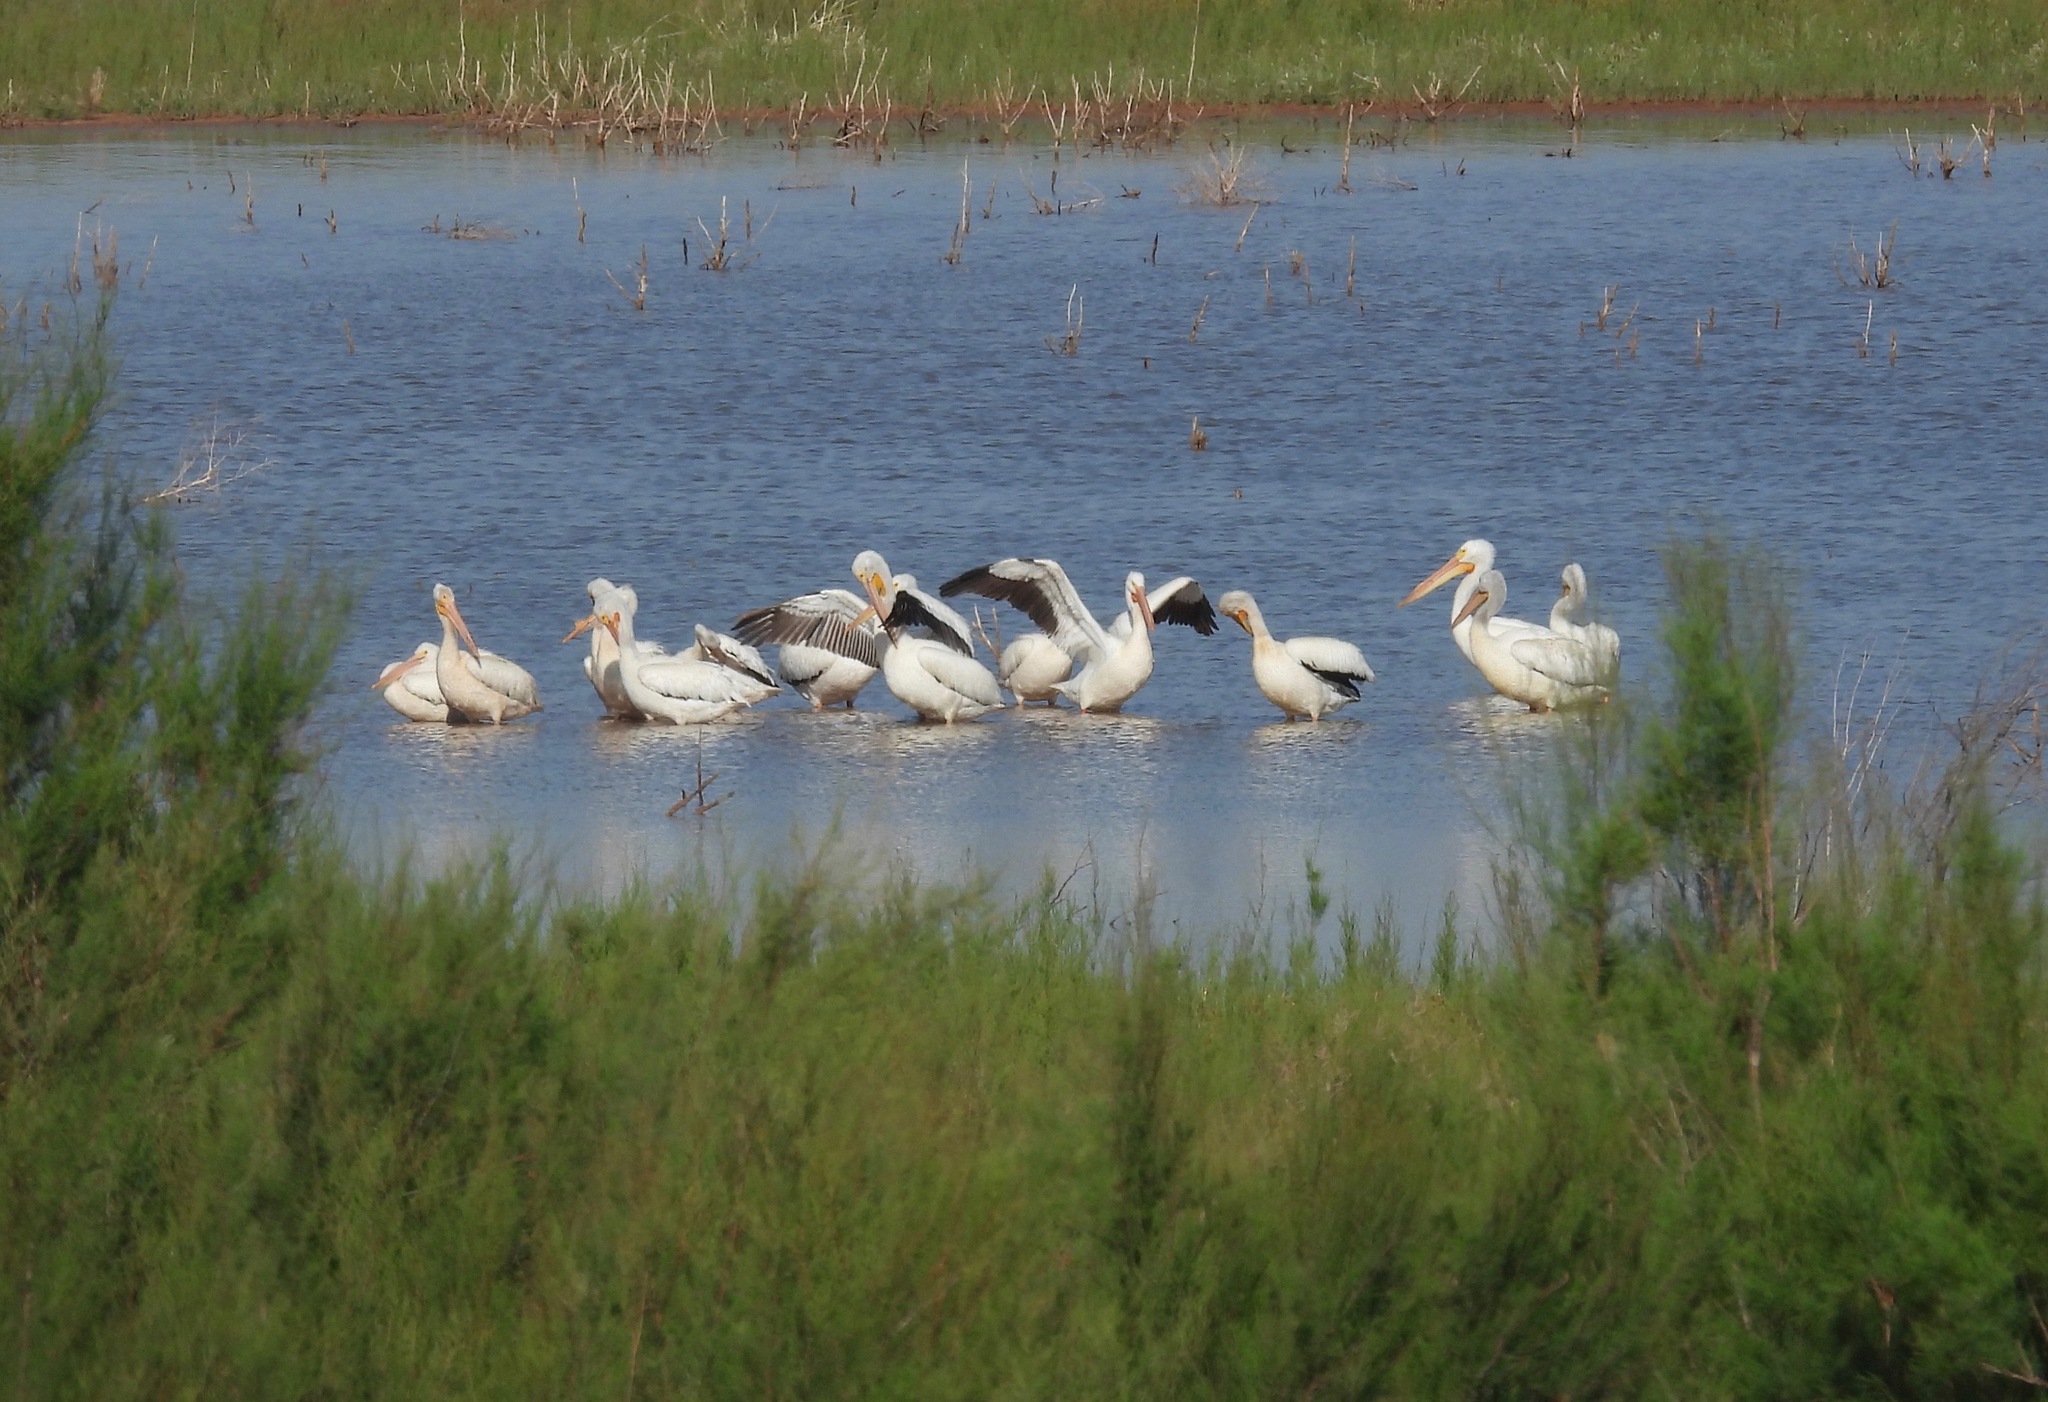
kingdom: Animalia
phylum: Chordata
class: Aves
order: Pelecaniformes
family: Pelecanidae
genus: Pelecanus
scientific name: Pelecanus erythrorhynchos
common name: American white pelican
